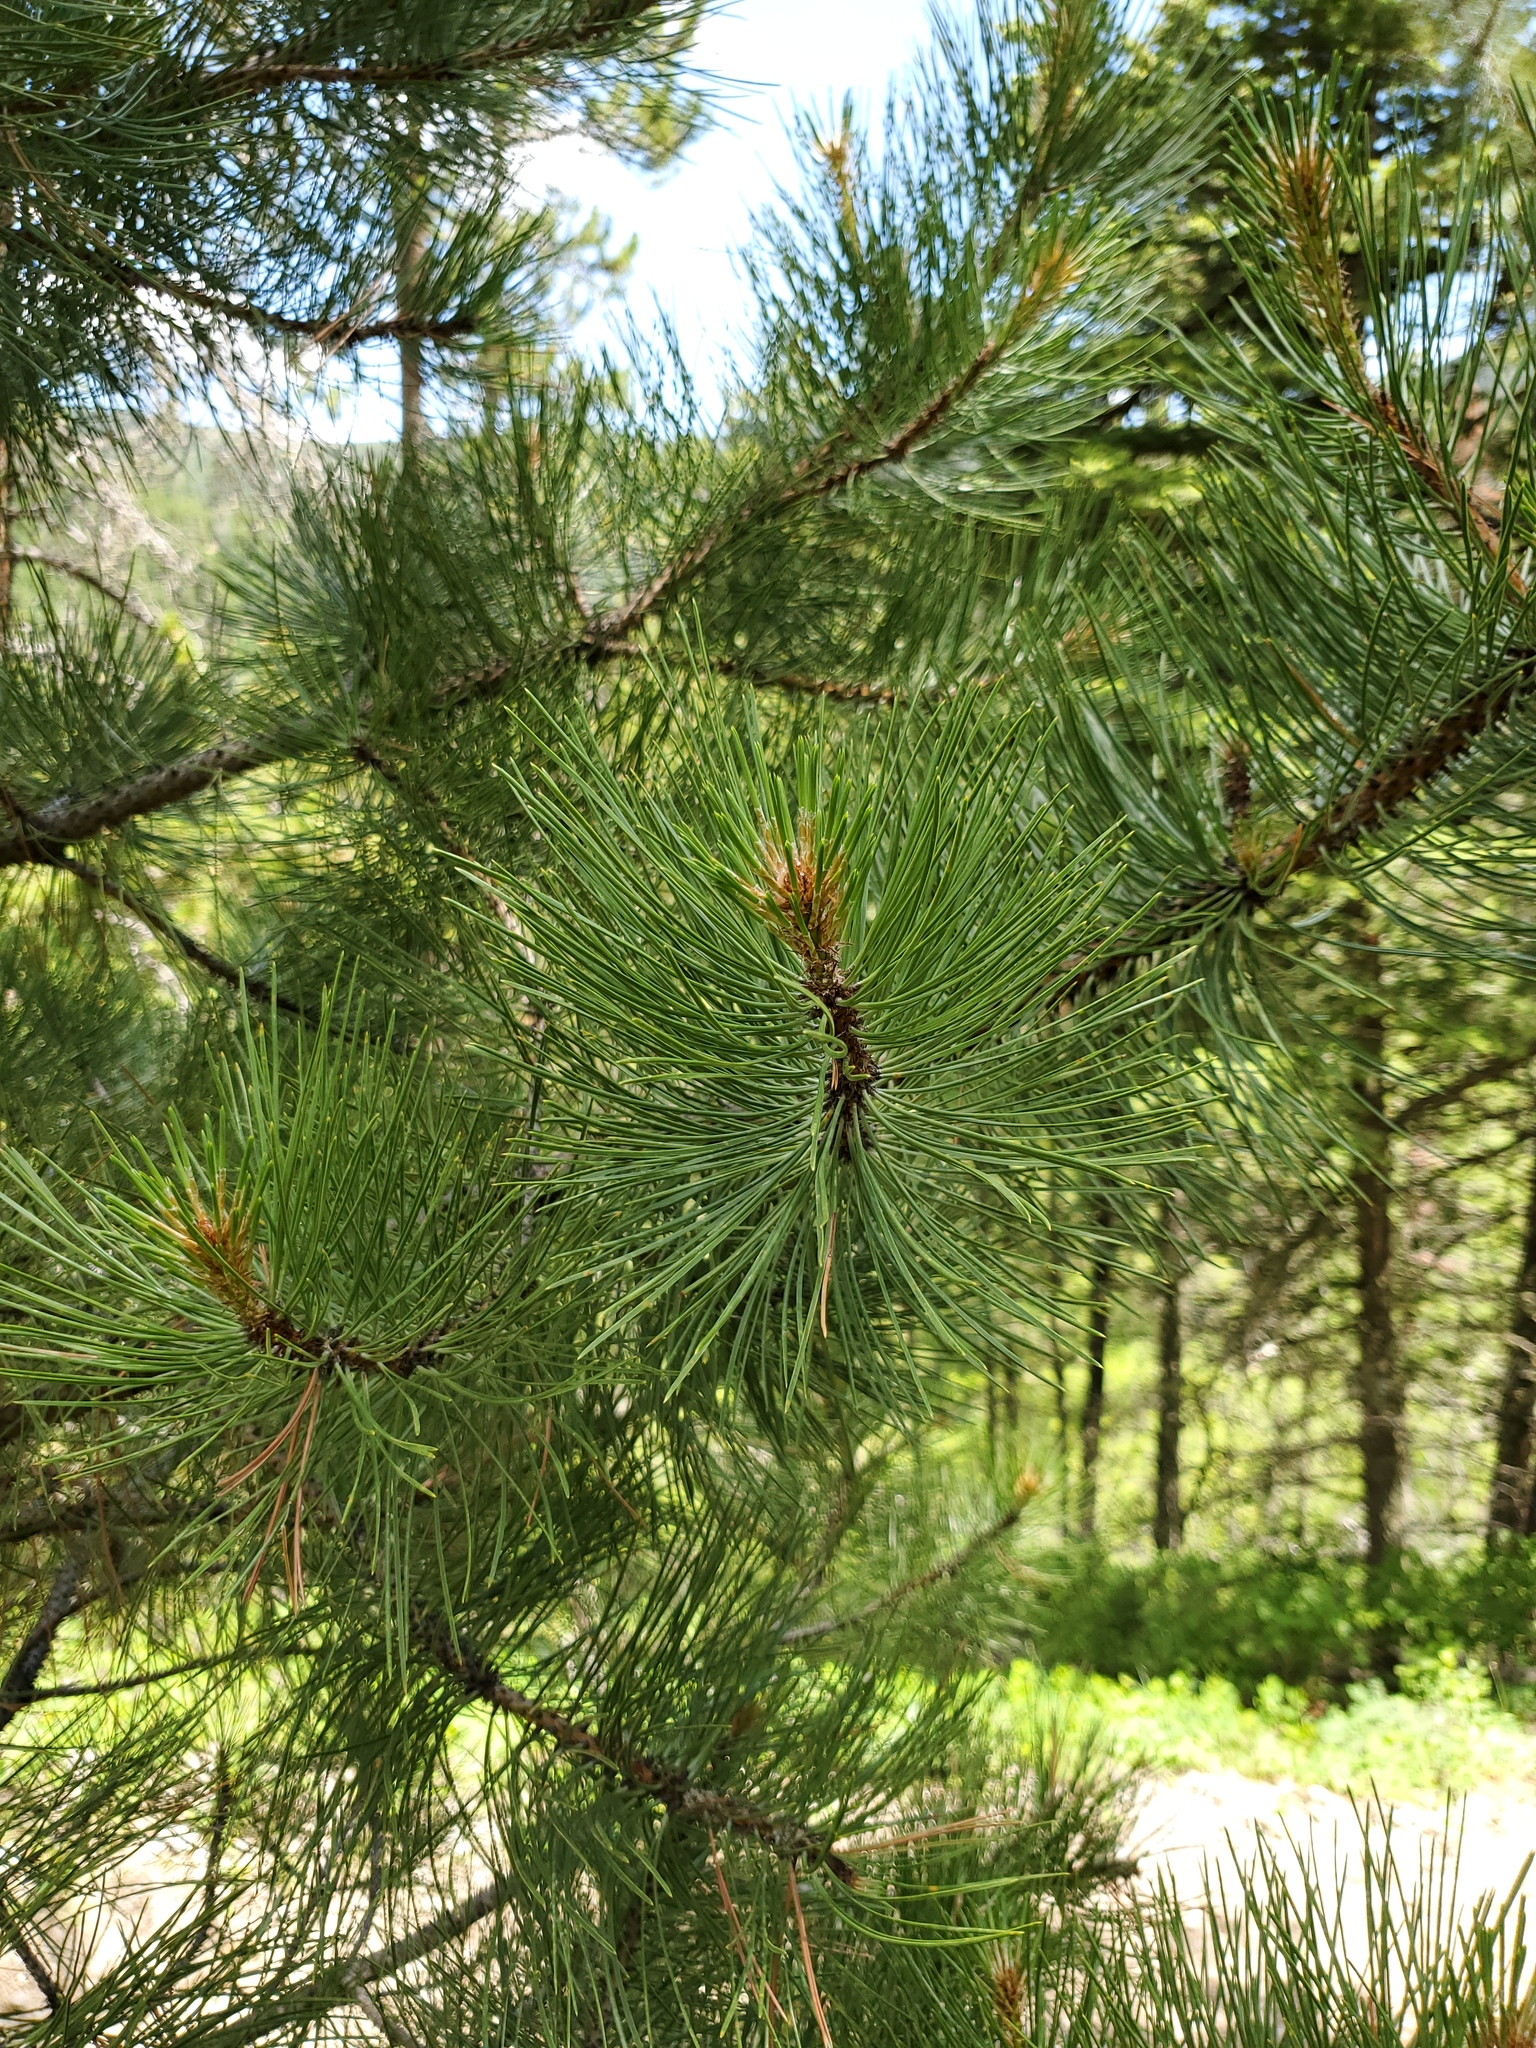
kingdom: Plantae
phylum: Tracheophyta
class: Pinopsida
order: Pinales
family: Pinaceae
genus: Pinus
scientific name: Pinus ponderosa
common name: Western yellow-pine
